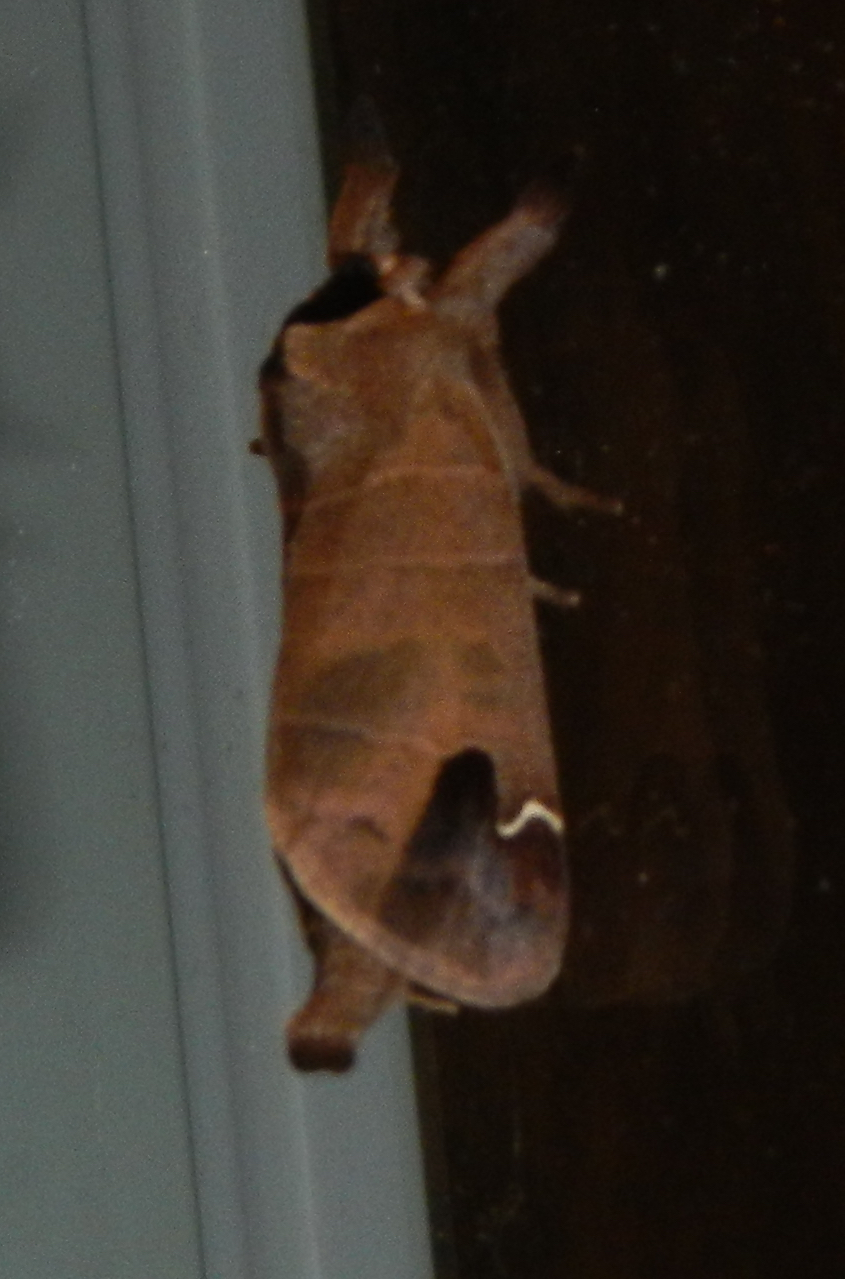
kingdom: Animalia
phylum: Arthropoda
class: Insecta
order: Lepidoptera
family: Notodontidae
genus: Clostera
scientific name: Clostera albosigma
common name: Sigmoid prominent
